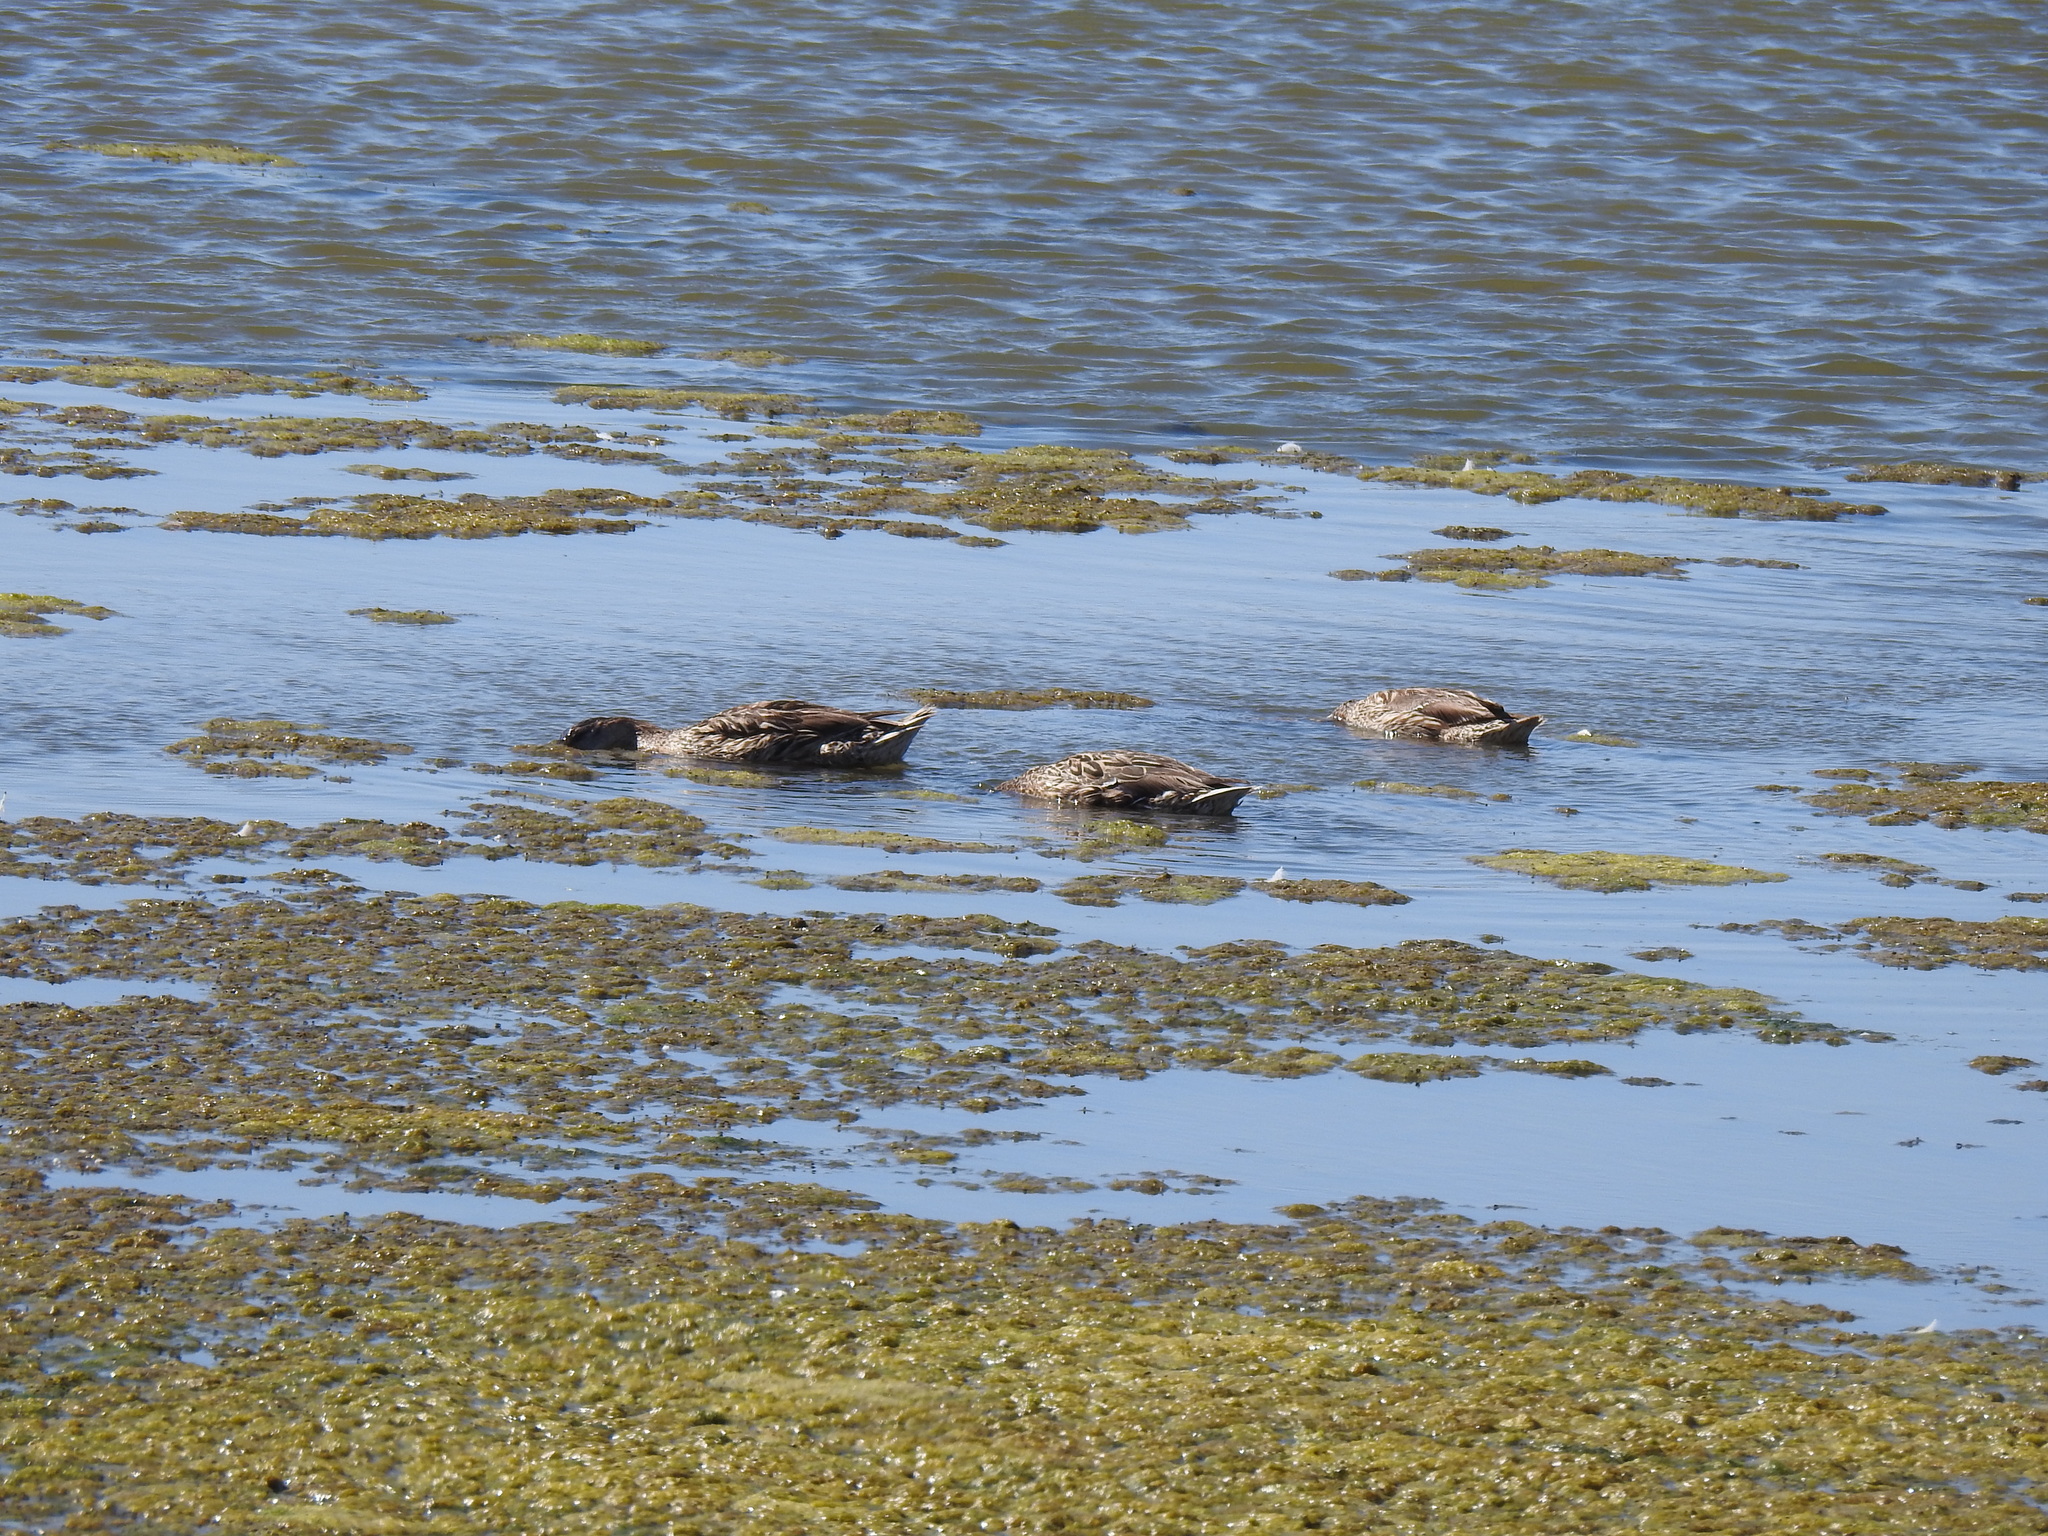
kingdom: Animalia
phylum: Chordata
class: Aves
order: Anseriformes
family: Anatidae
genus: Anas
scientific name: Anas platyrhynchos
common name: Mallard
